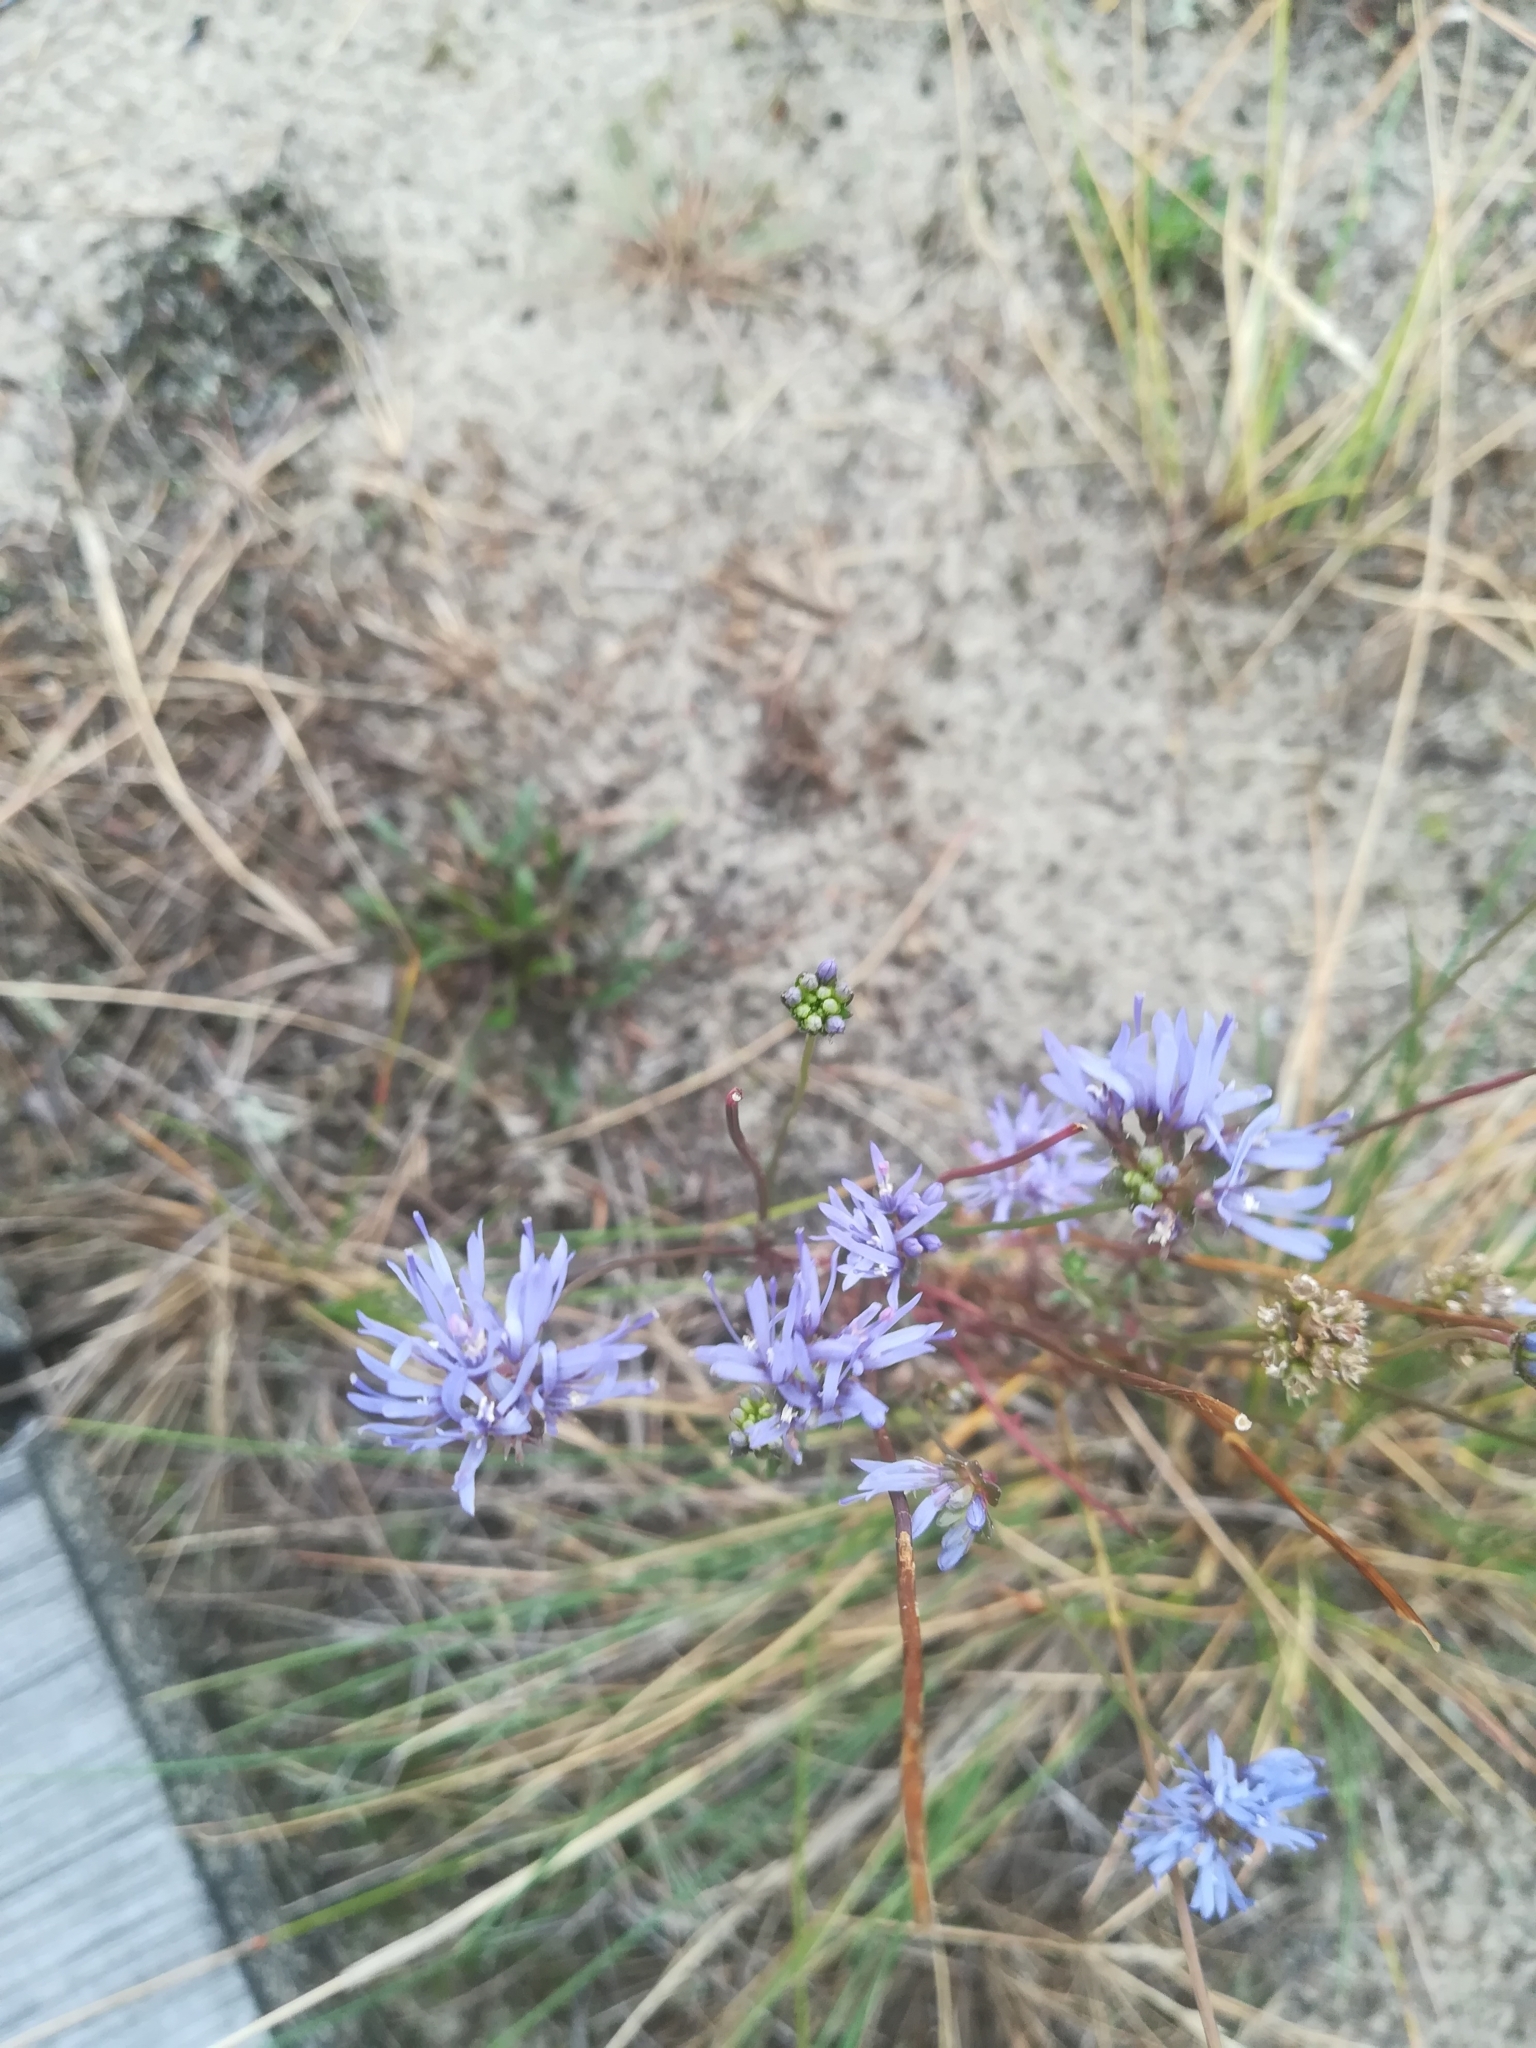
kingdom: Plantae
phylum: Tracheophyta
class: Magnoliopsida
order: Asterales
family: Campanulaceae
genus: Jasione
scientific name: Jasione montana
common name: Sheep's-bit
